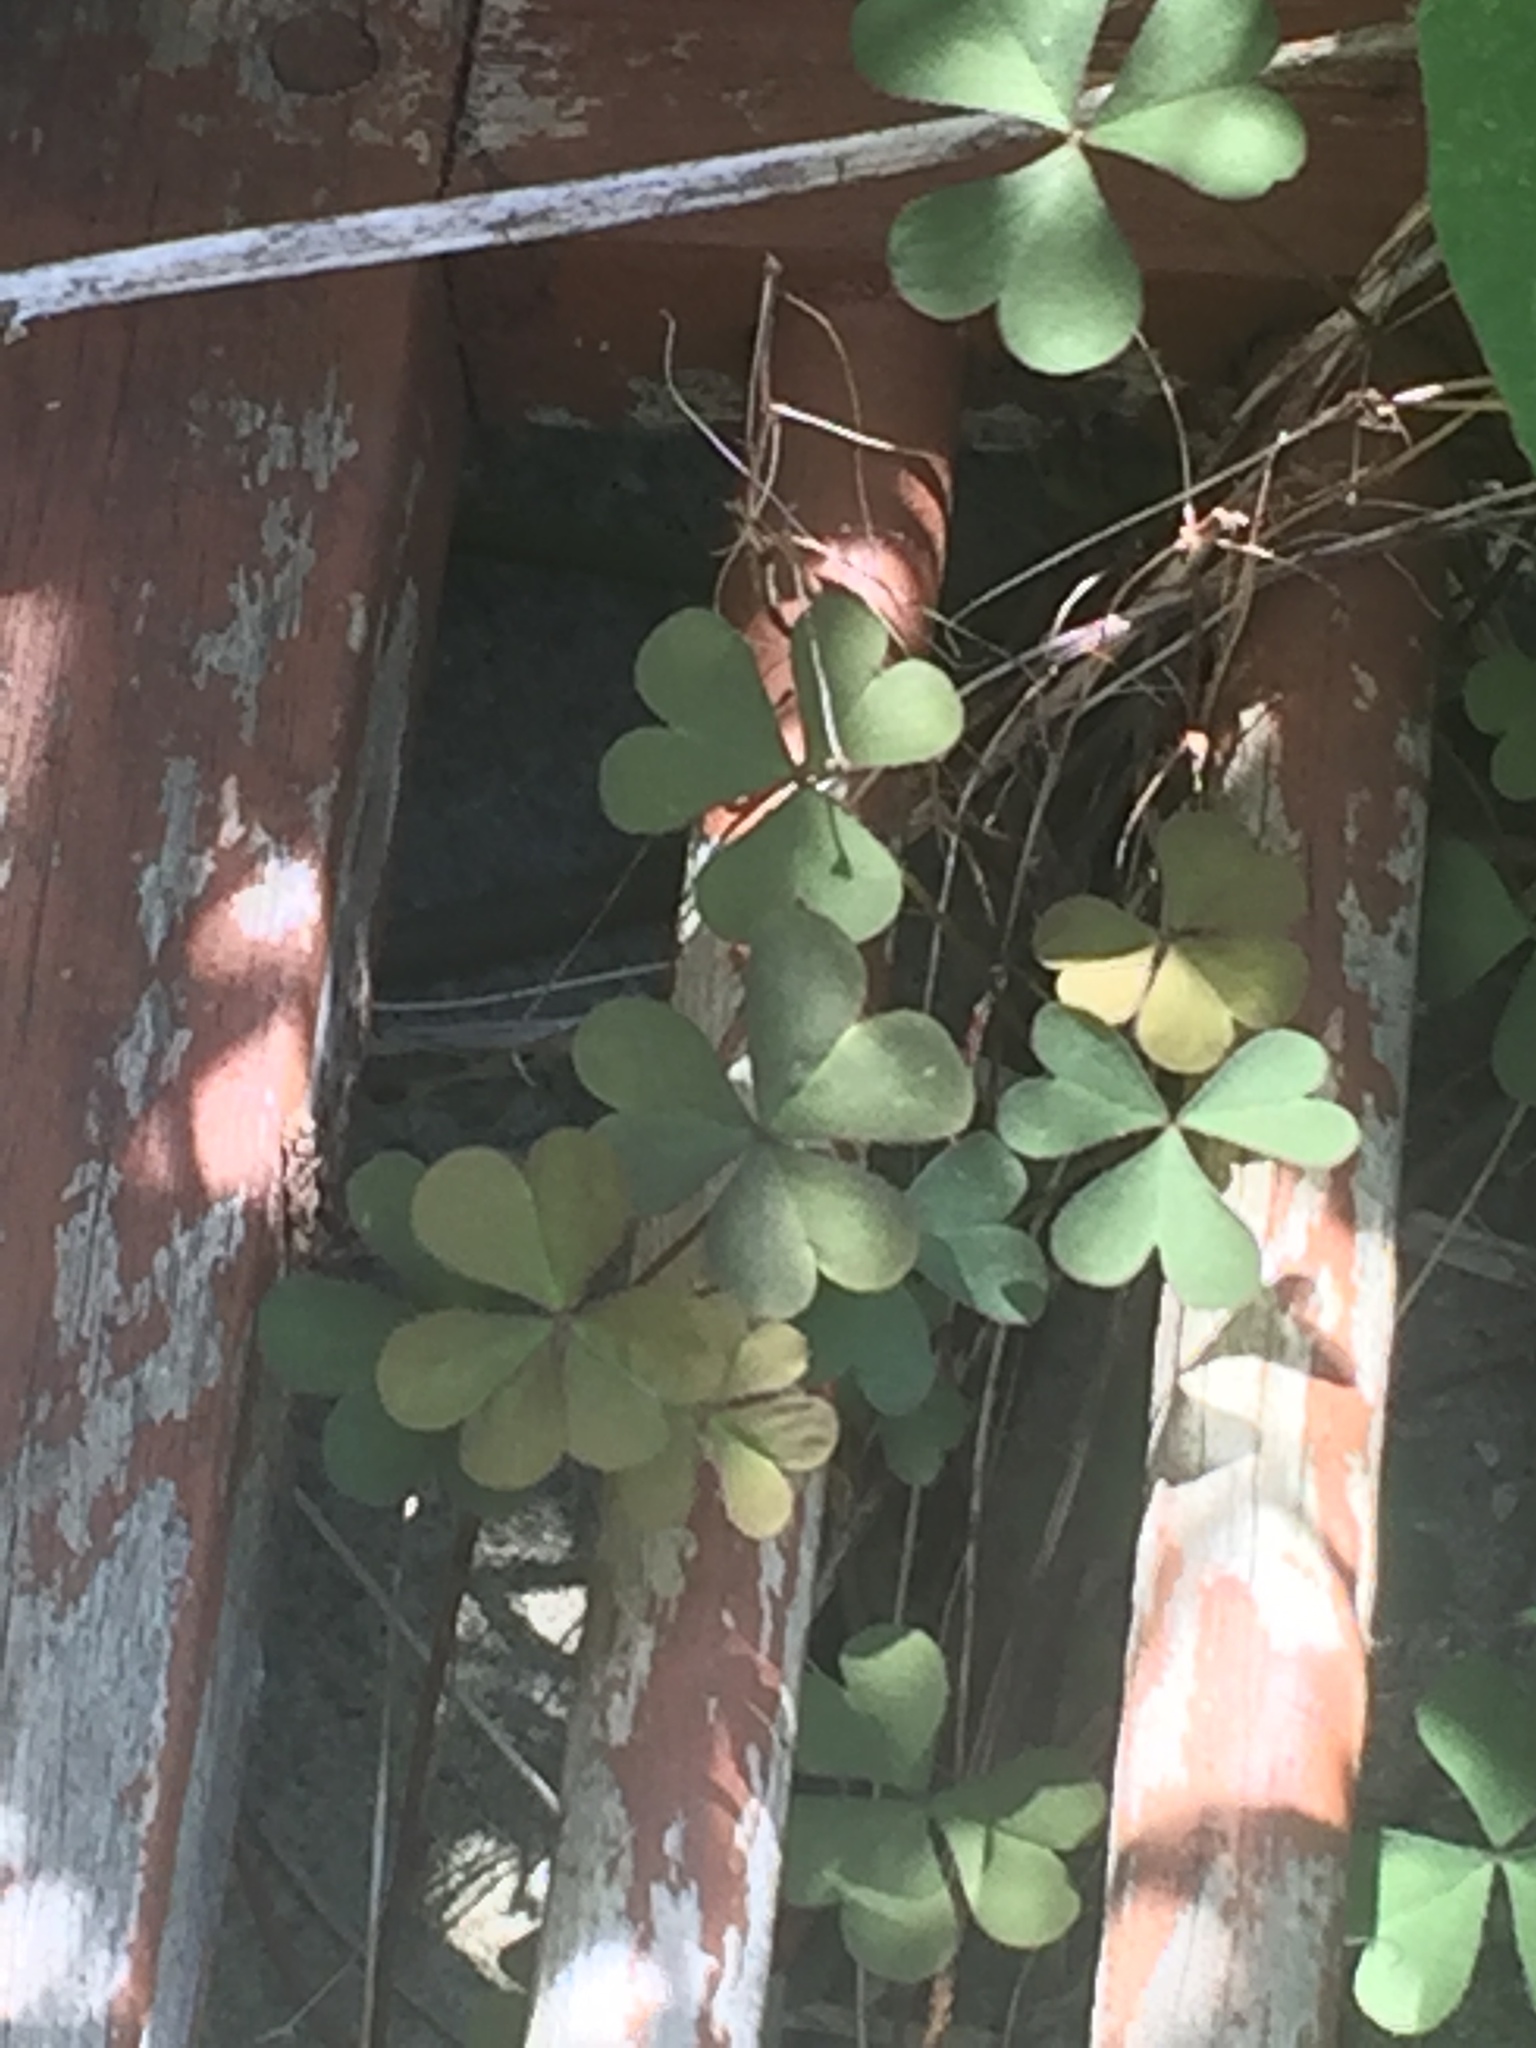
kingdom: Plantae
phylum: Tracheophyta
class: Magnoliopsida
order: Oxalidales
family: Oxalidaceae
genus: Oxalis
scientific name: Oxalis corniculata
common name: Procumbent yellow-sorrel
